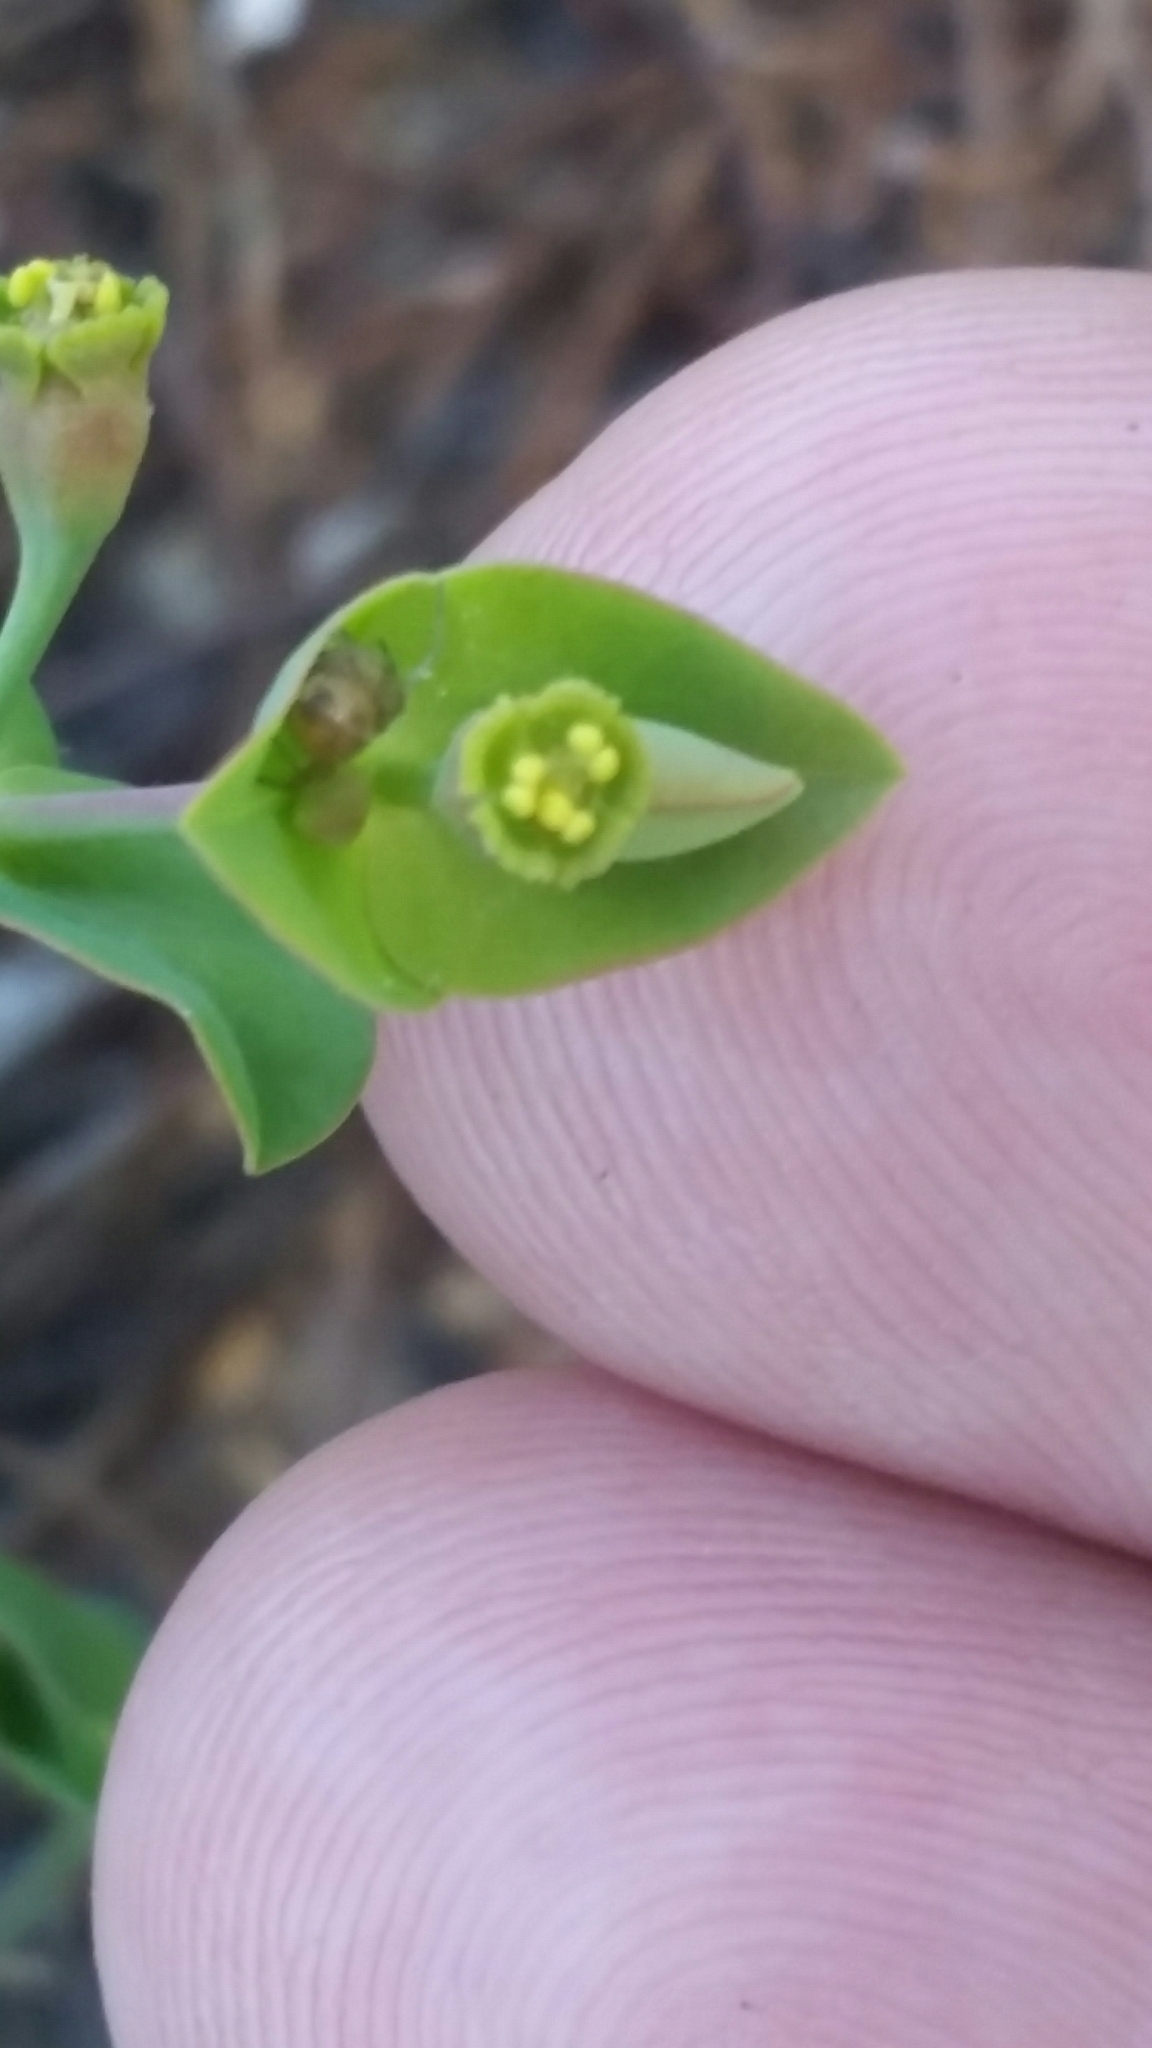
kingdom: Plantae
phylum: Tracheophyta
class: Magnoliopsida
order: Malpighiales
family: Euphorbiaceae
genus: Euphorbia
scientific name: Euphorbia floridana
